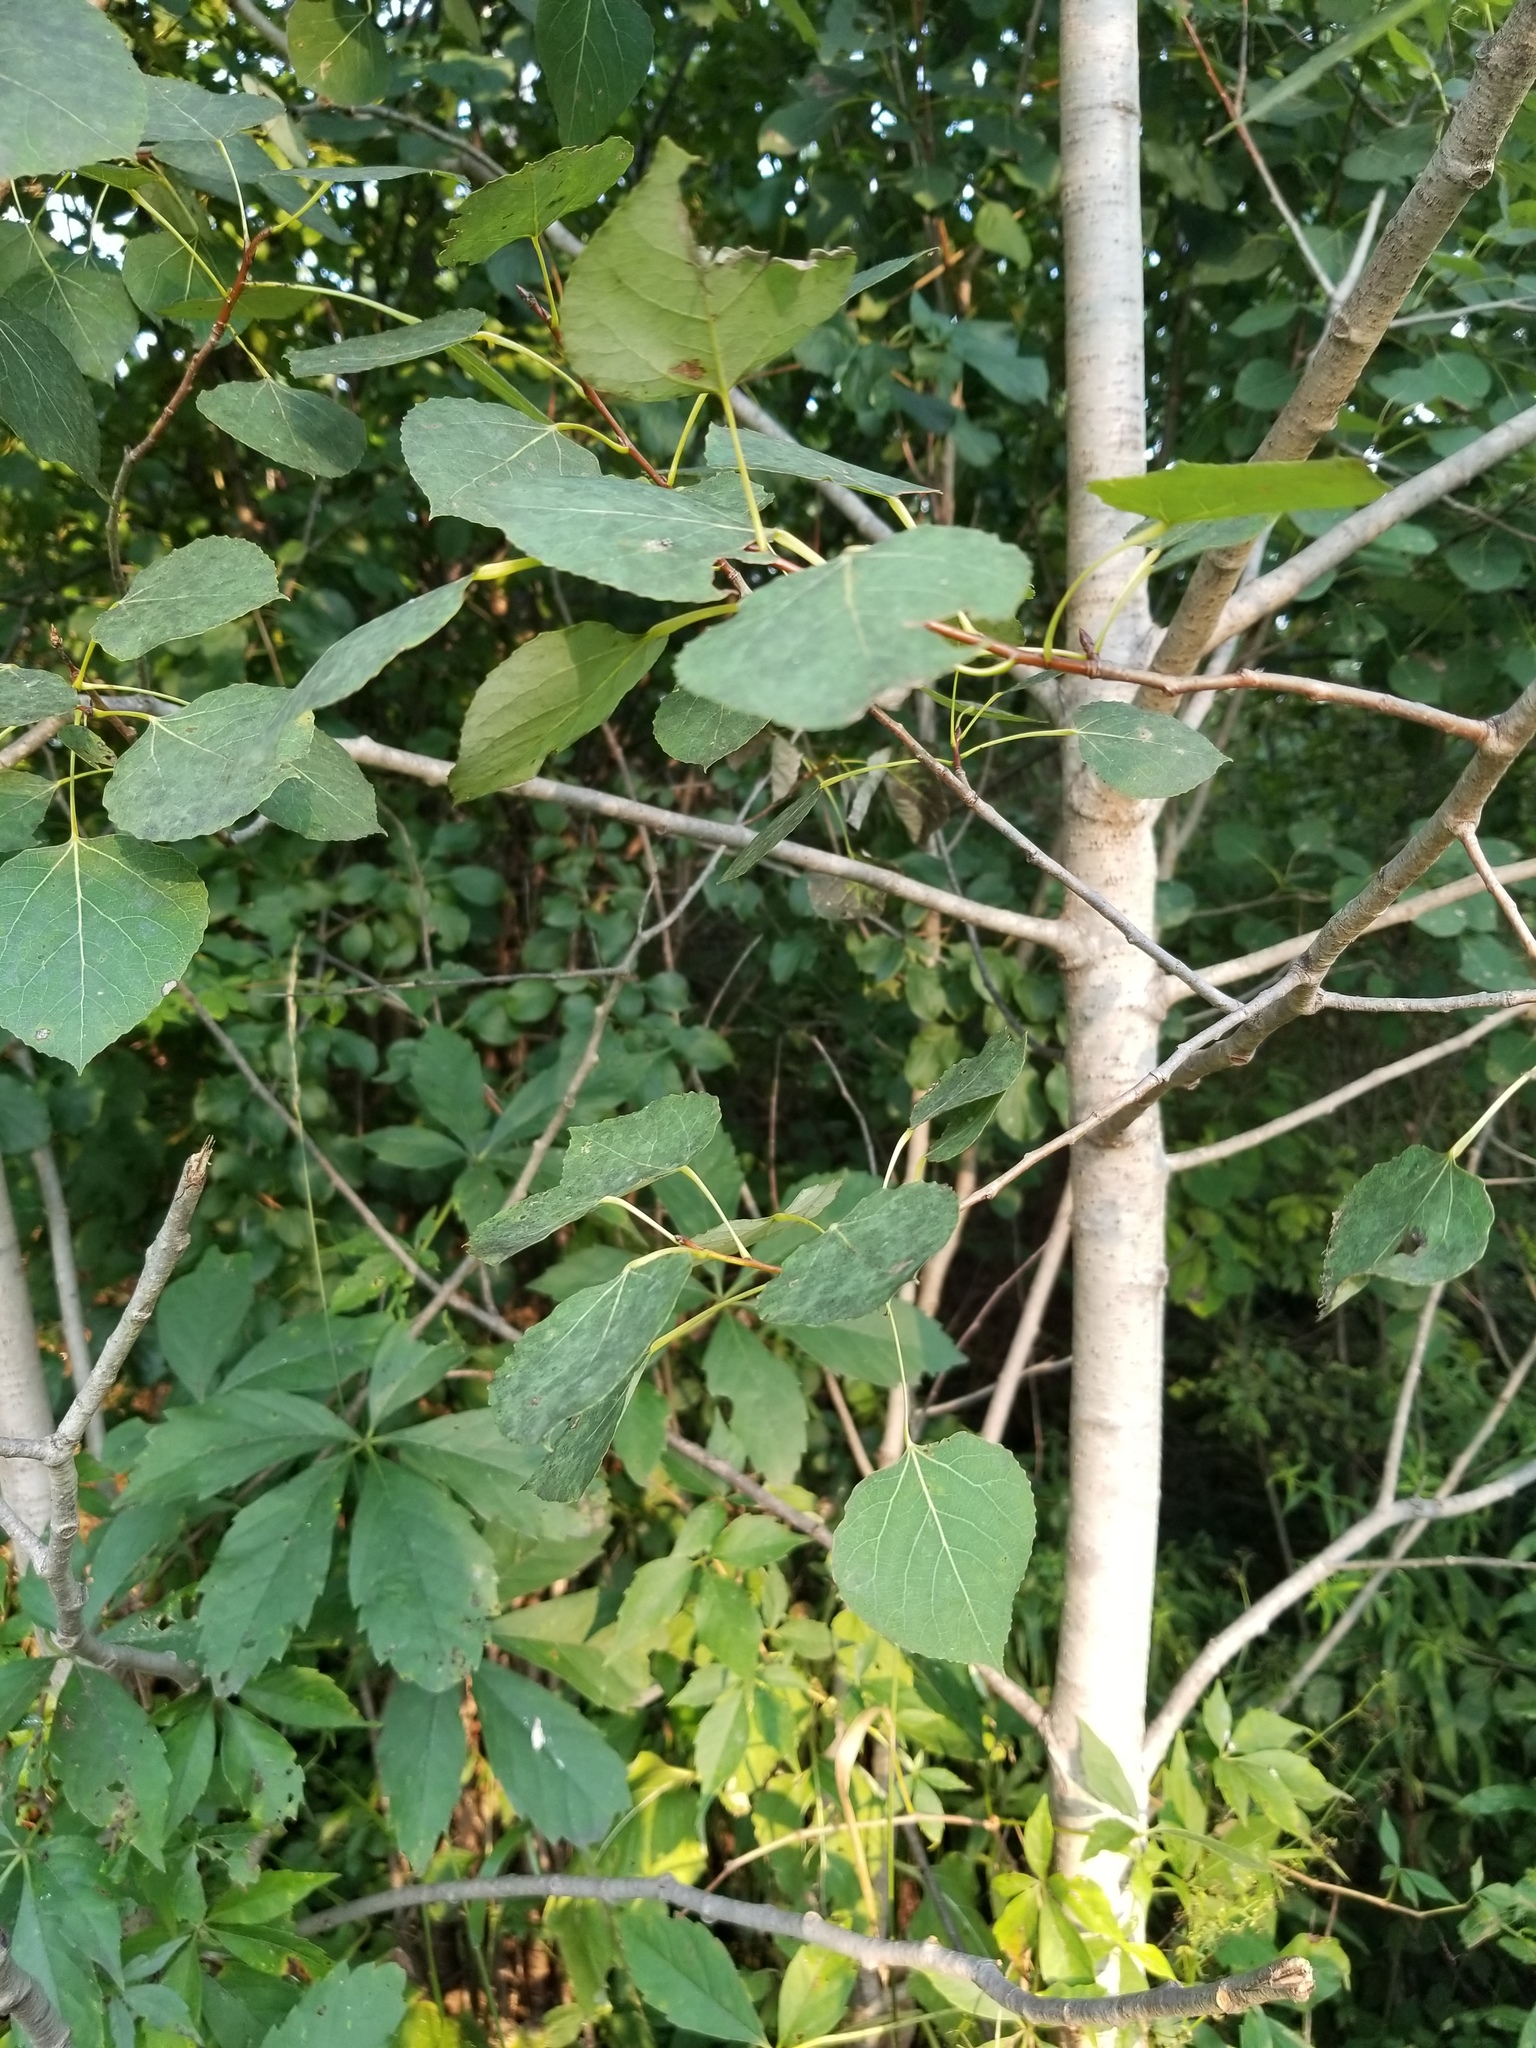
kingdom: Plantae
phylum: Tracheophyta
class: Magnoliopsida
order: Malpighiales
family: Salicaceae
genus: Populus
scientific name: Populus tremuloides
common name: Quaking aspen
